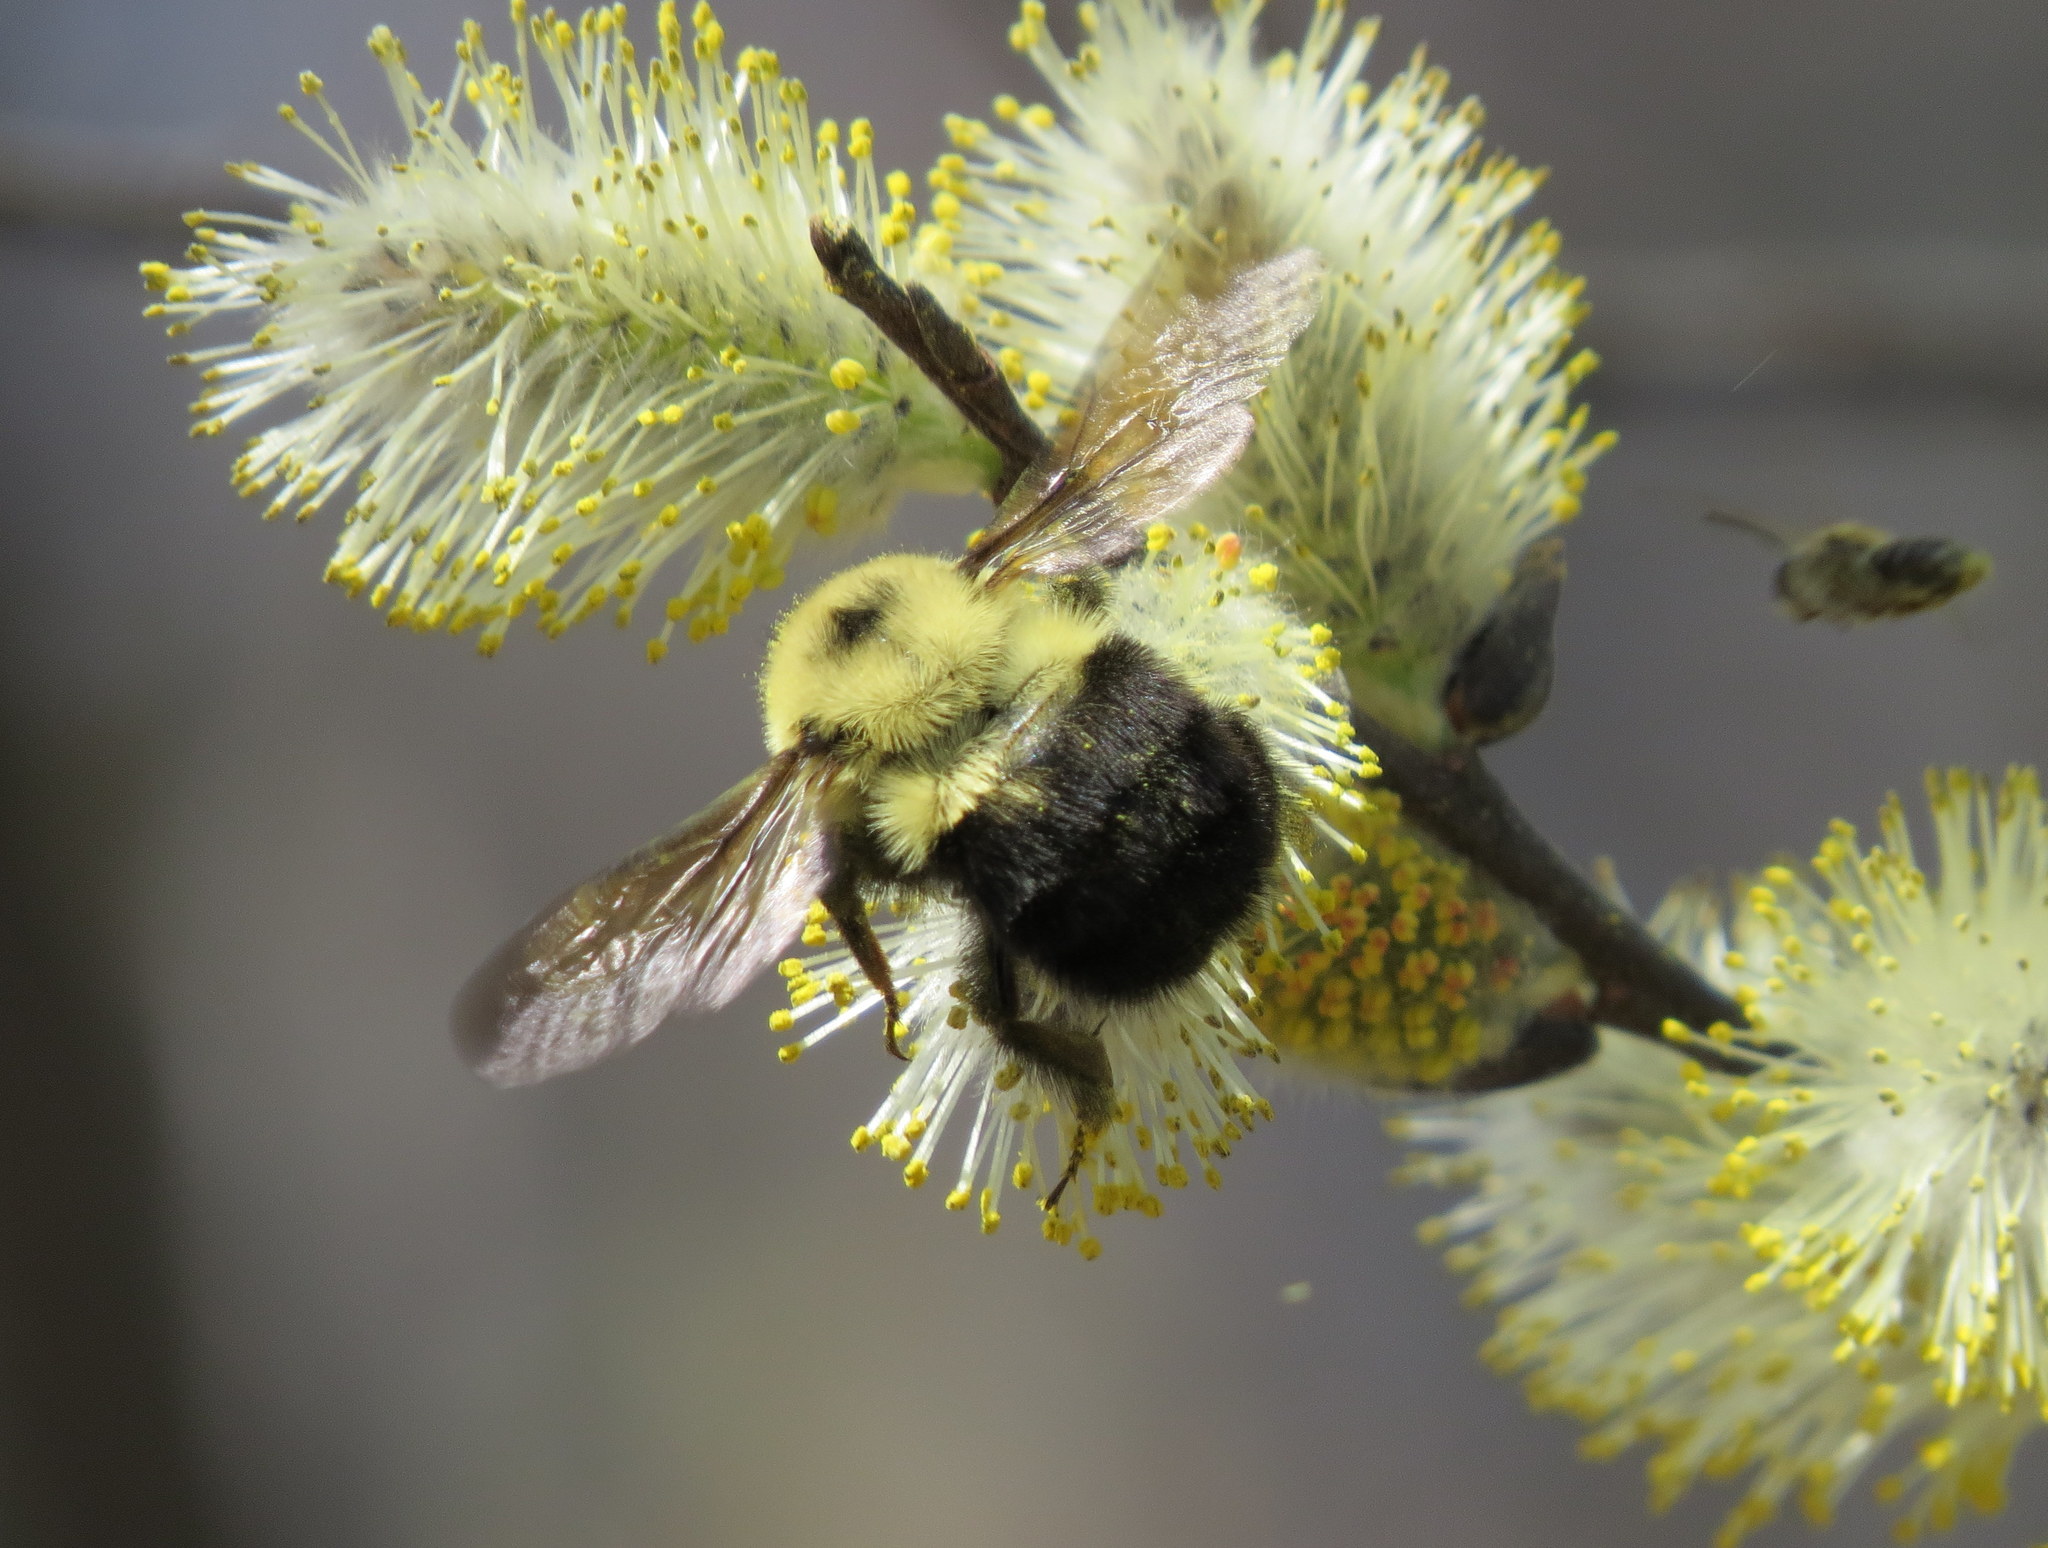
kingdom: Animalia
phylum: Arthropoda
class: Insecta
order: Hymenoptera
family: Apidae
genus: Bombus
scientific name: Bombus bimaculatus
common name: Two-spotted bumble bee
